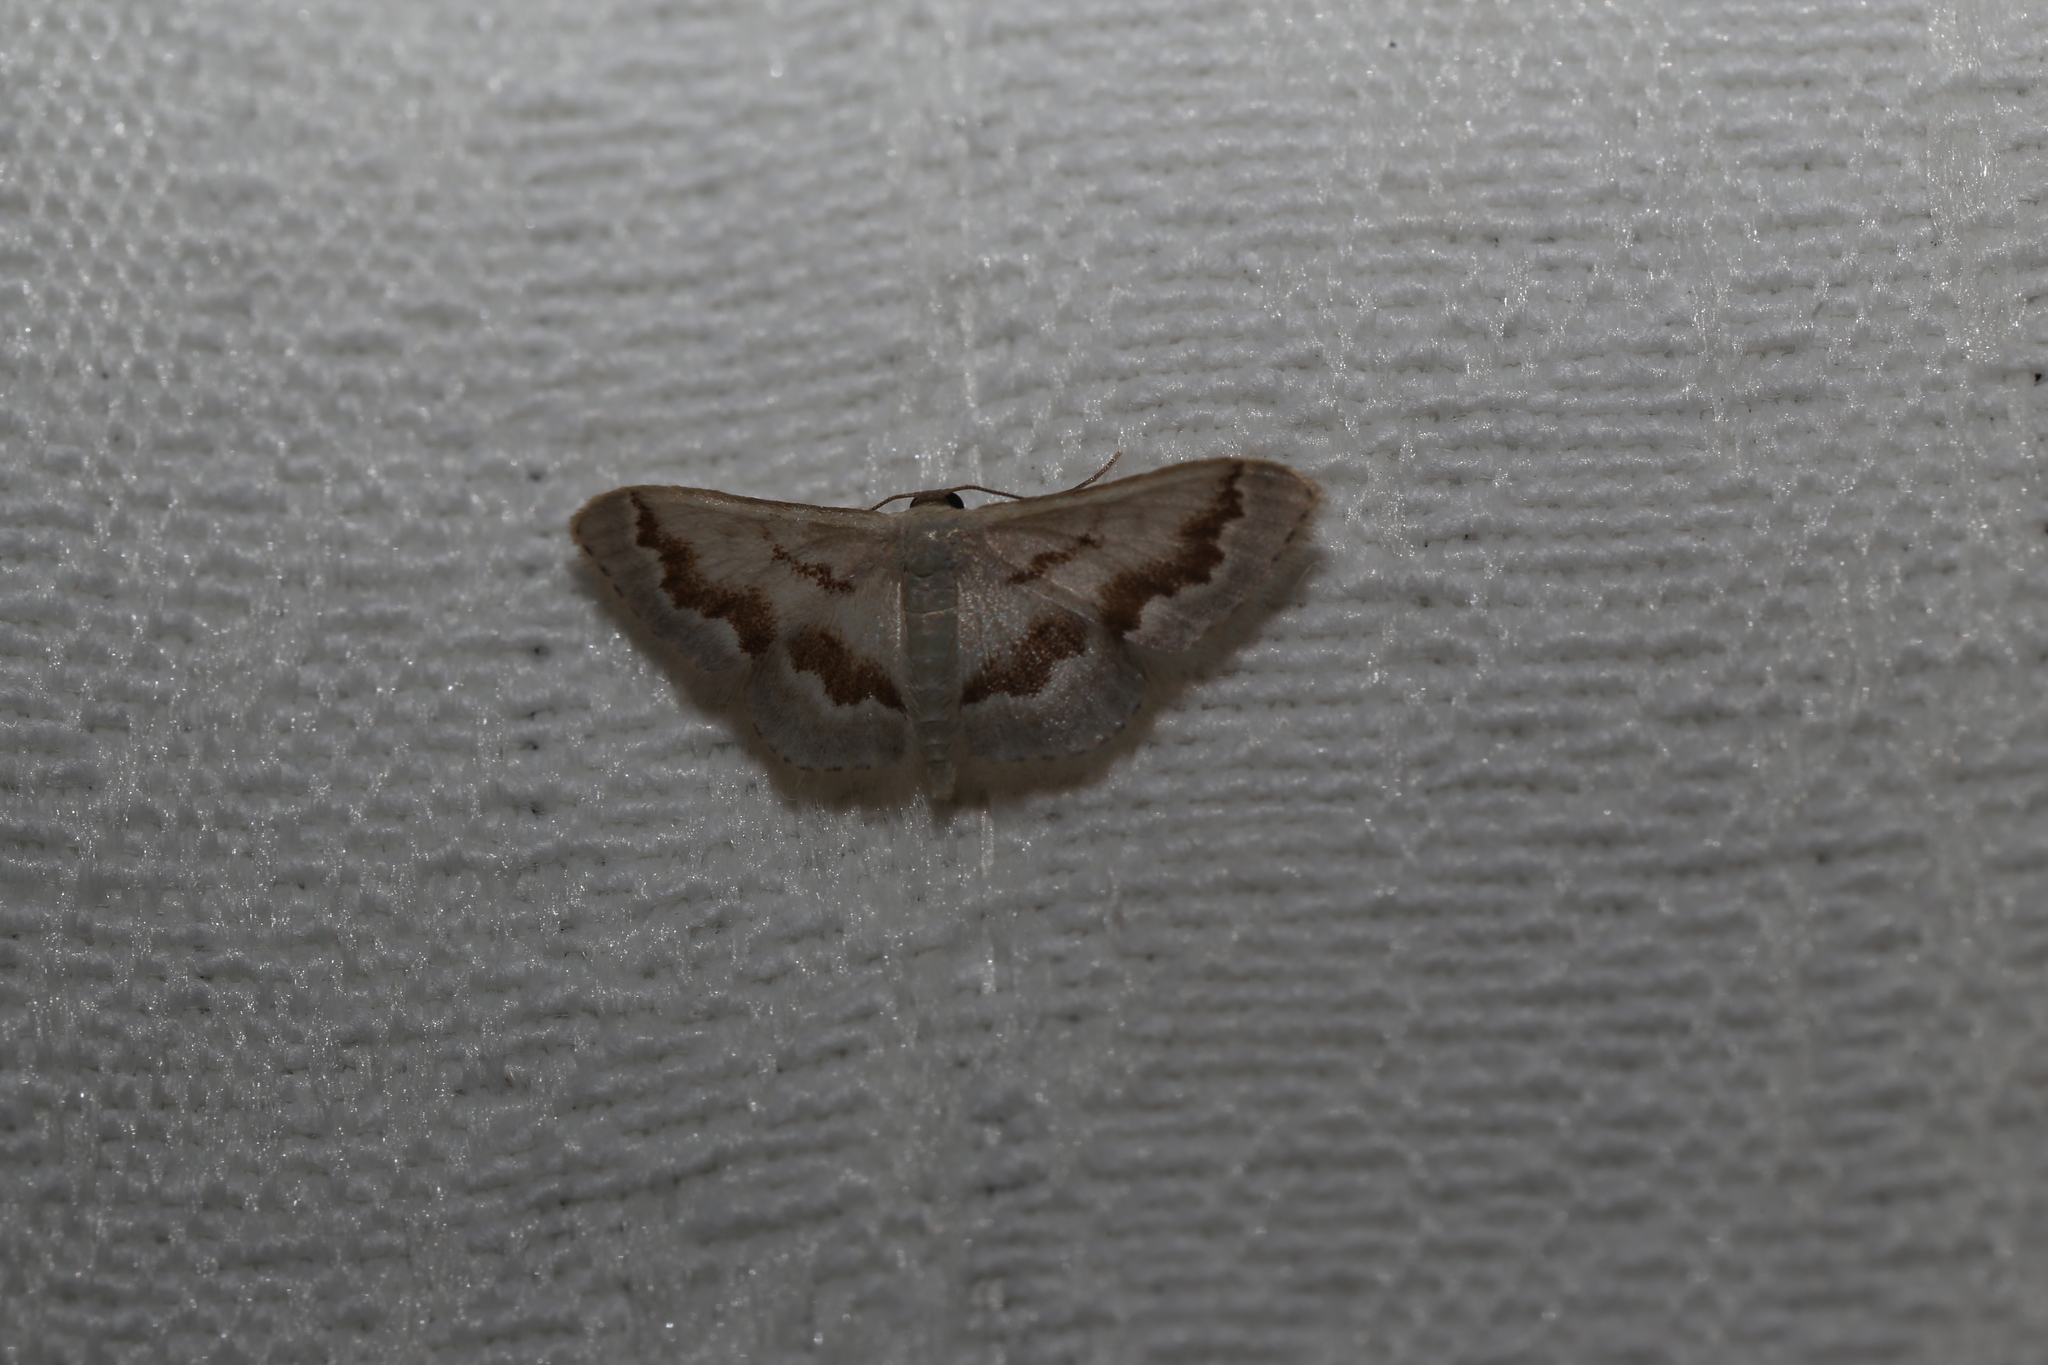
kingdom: Animalia
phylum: Arthropoda
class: Insecta
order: Lepidoptera
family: Geometridae
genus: Idaea
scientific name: Idaea iodesma
